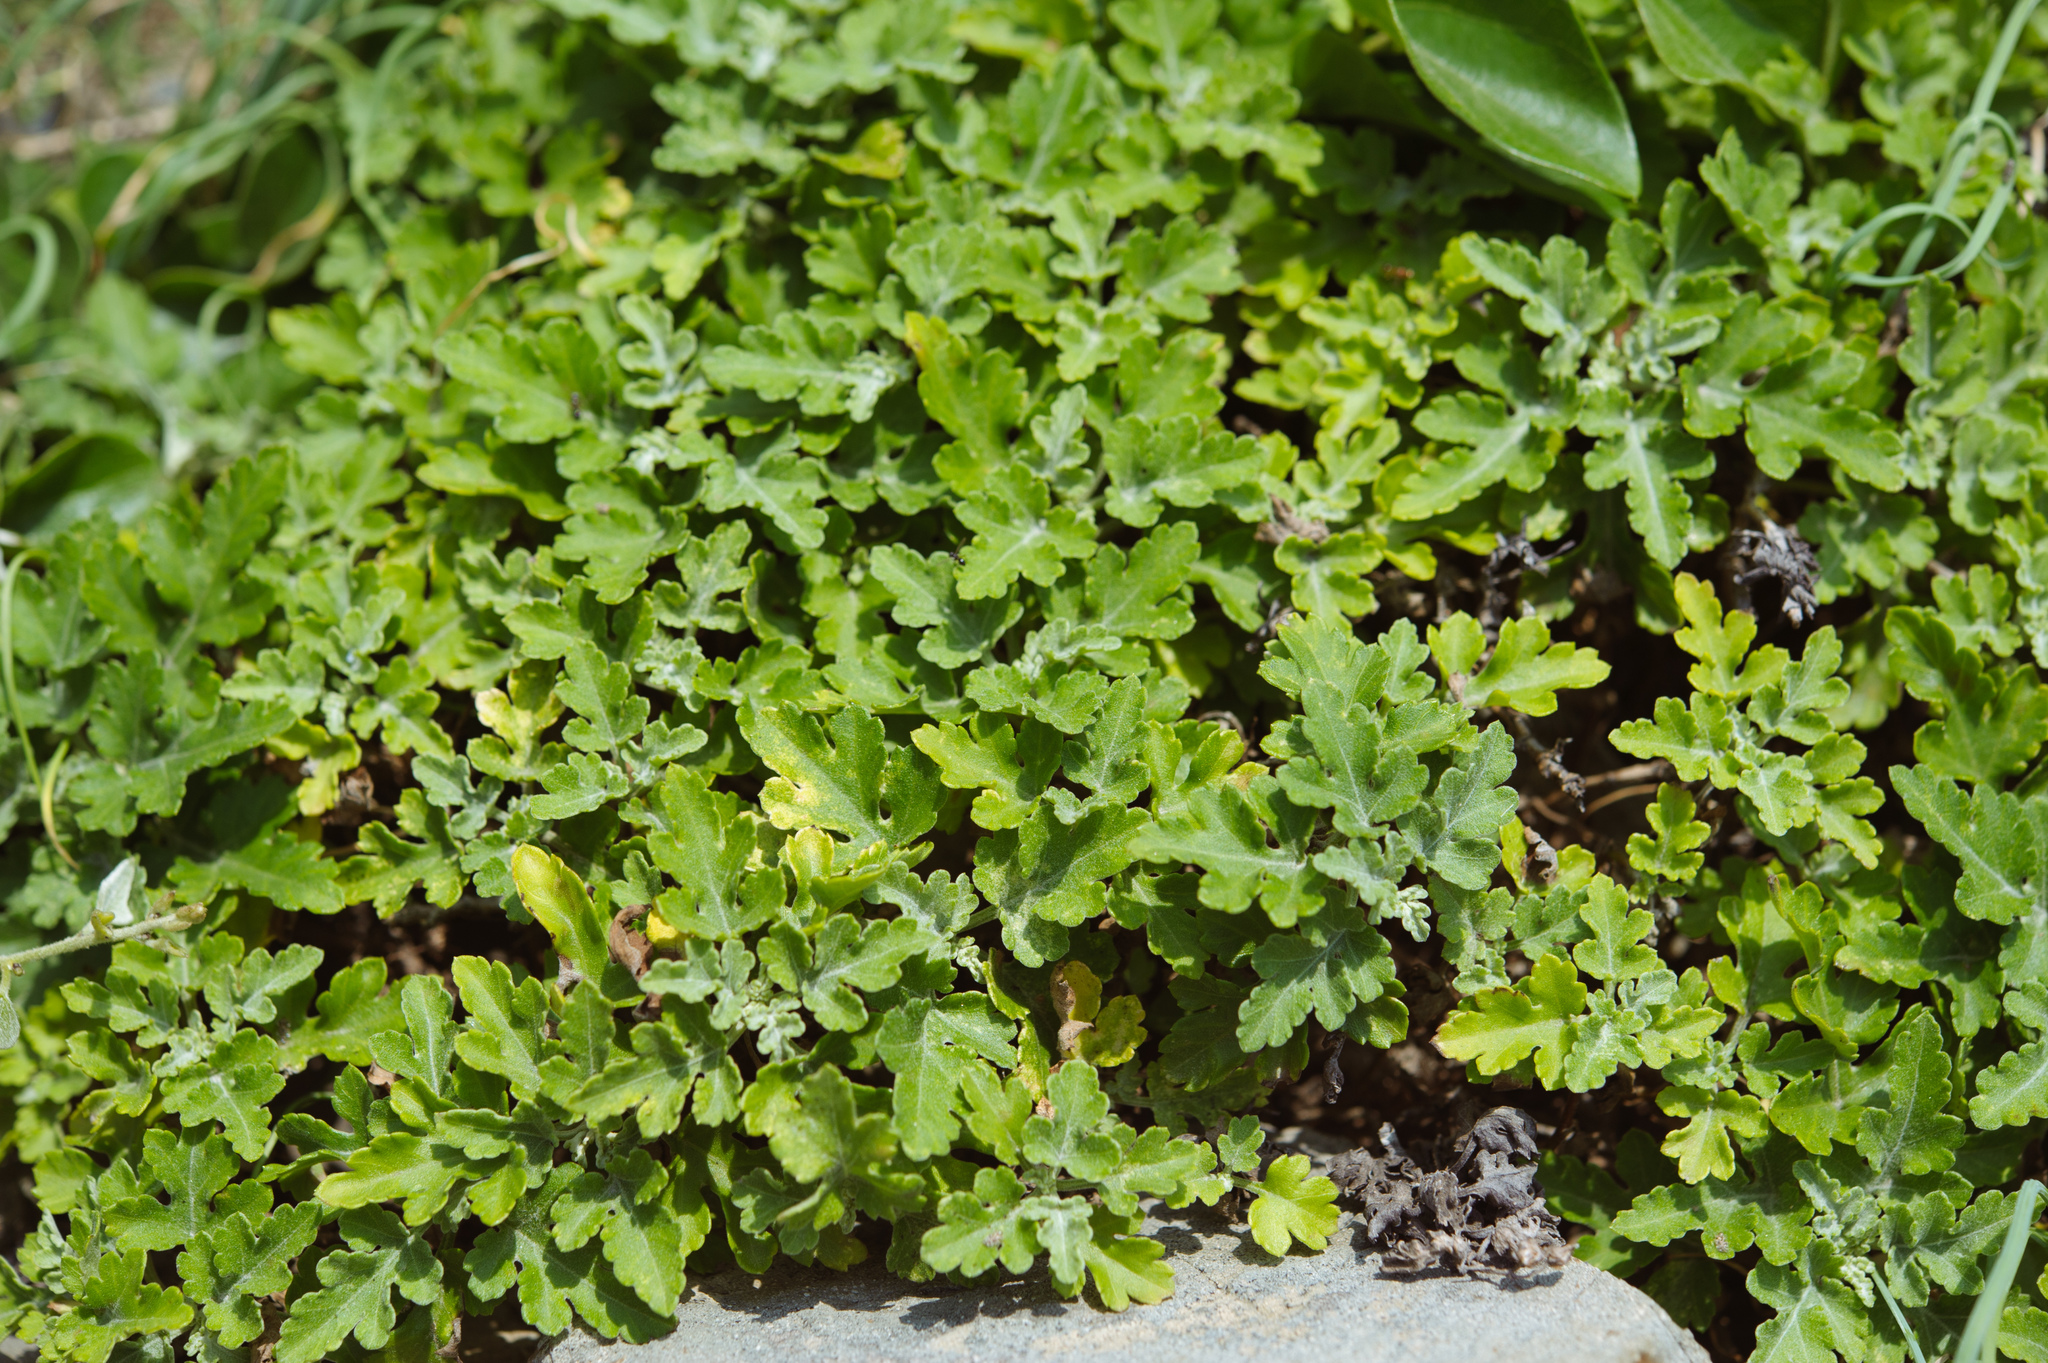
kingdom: Plantae
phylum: Tracheophyta
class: Magnoliopsida
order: Asterales
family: Asteraceae
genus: Chrysanthemum
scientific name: Chrysanthemum indicum
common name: Indian chrysanthemum
